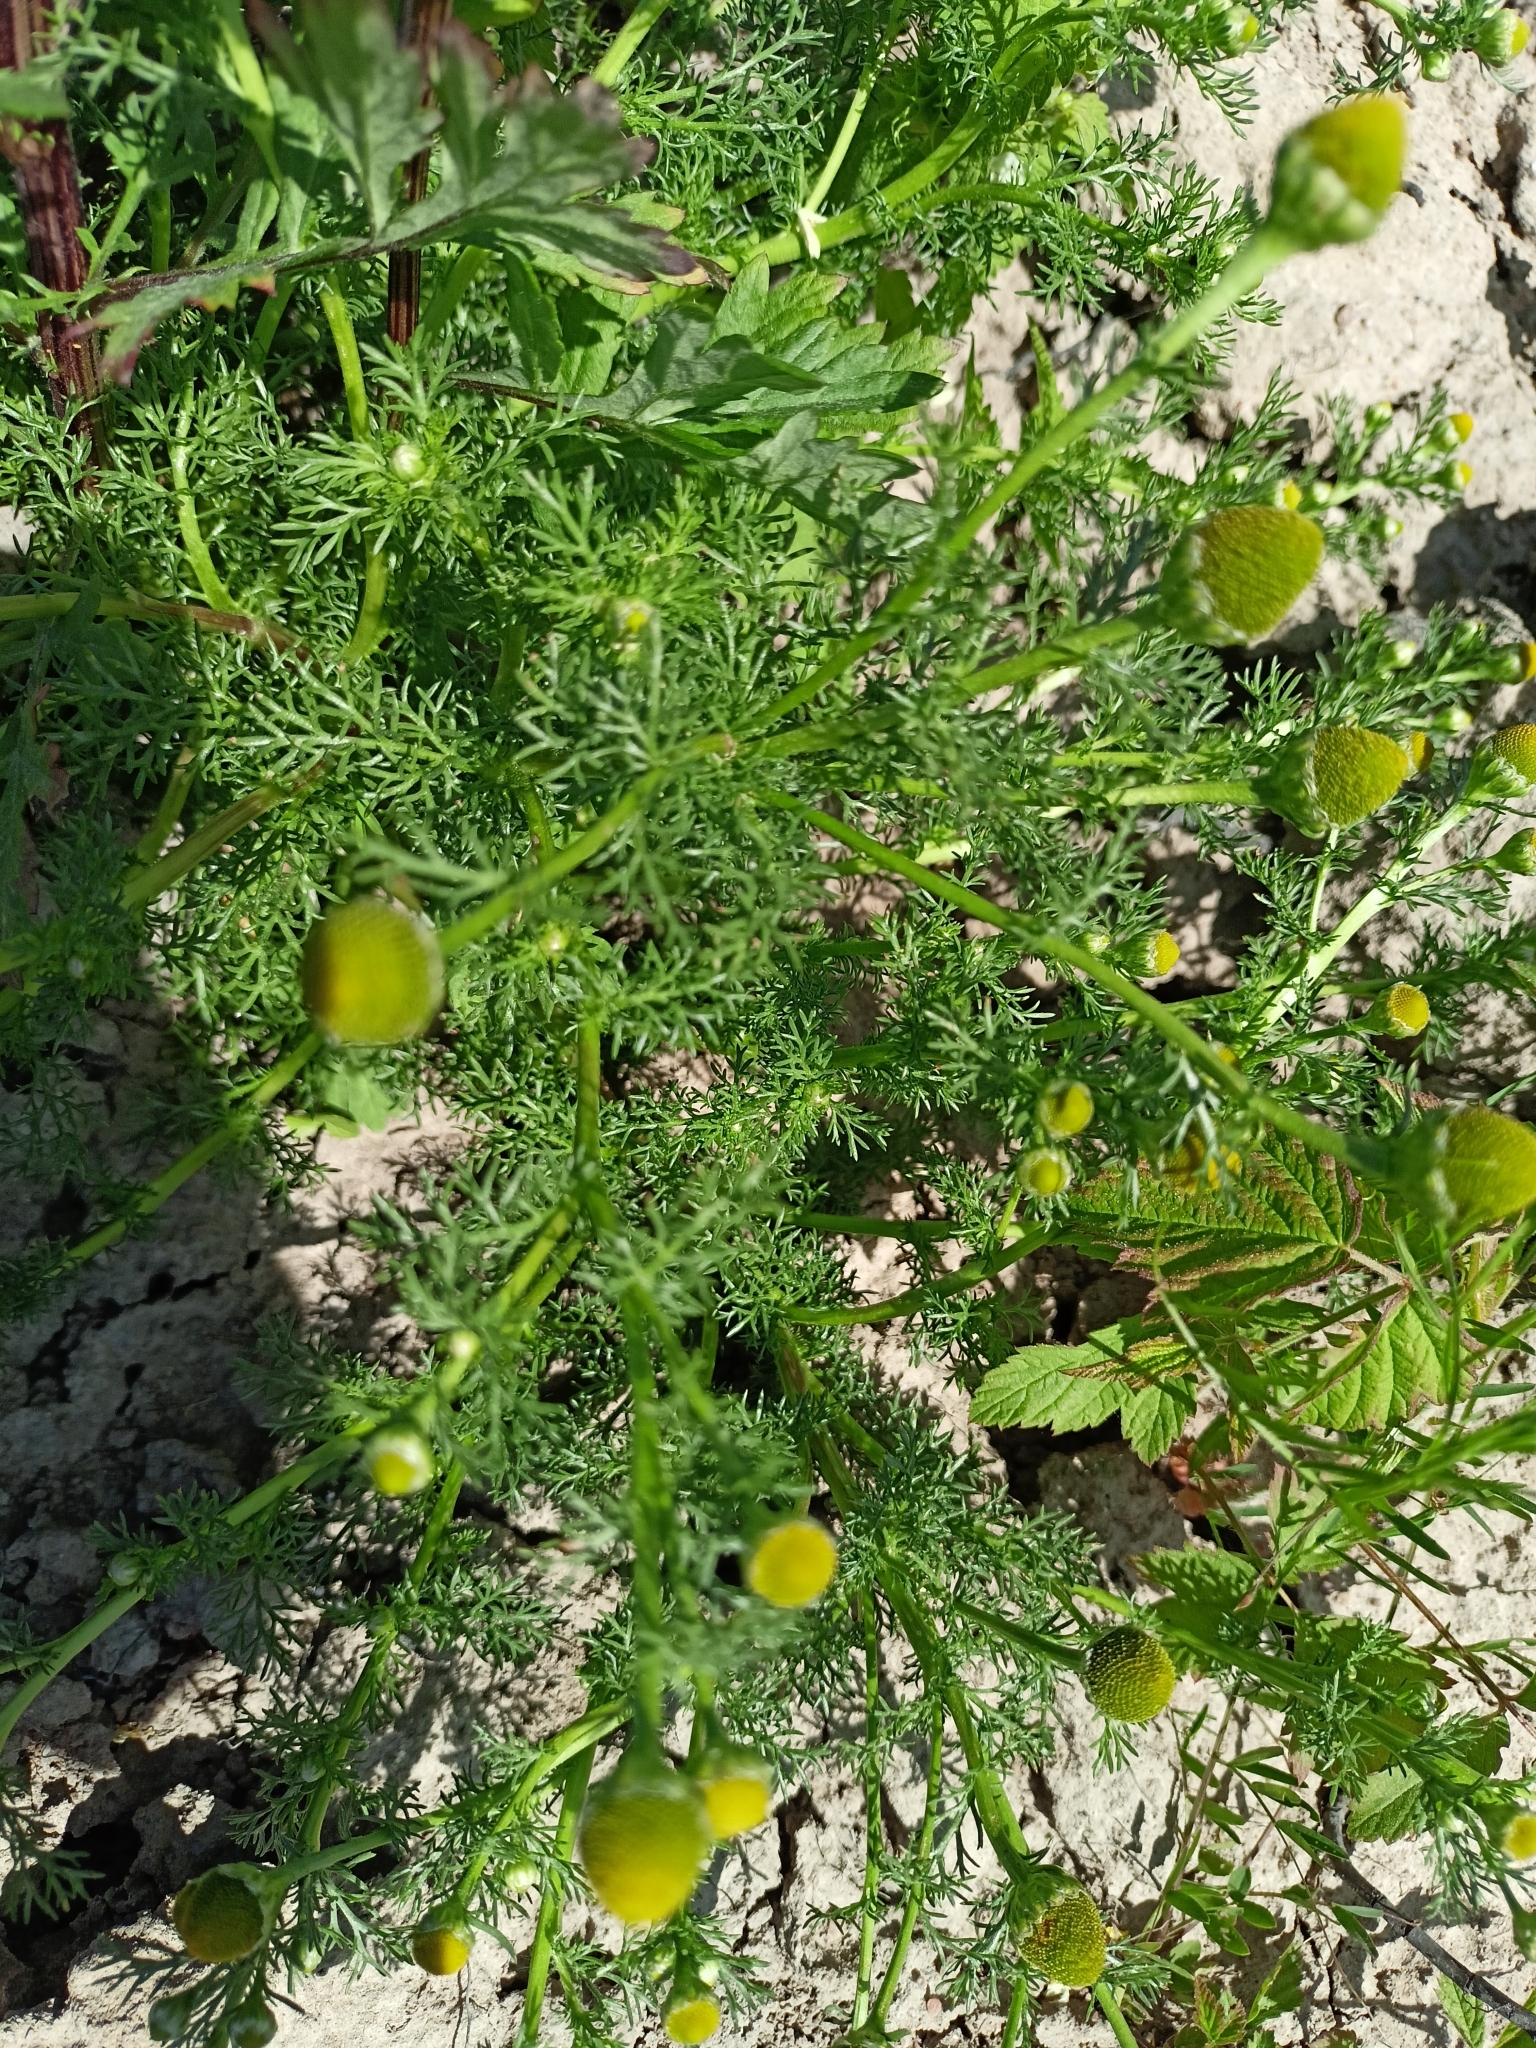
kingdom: Plantae
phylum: Tracheophyta
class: Magnoliopsida
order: Asterales
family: Asteraceae
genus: Matricaria
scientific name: Matricaria discoidea
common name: Disc mayweed
